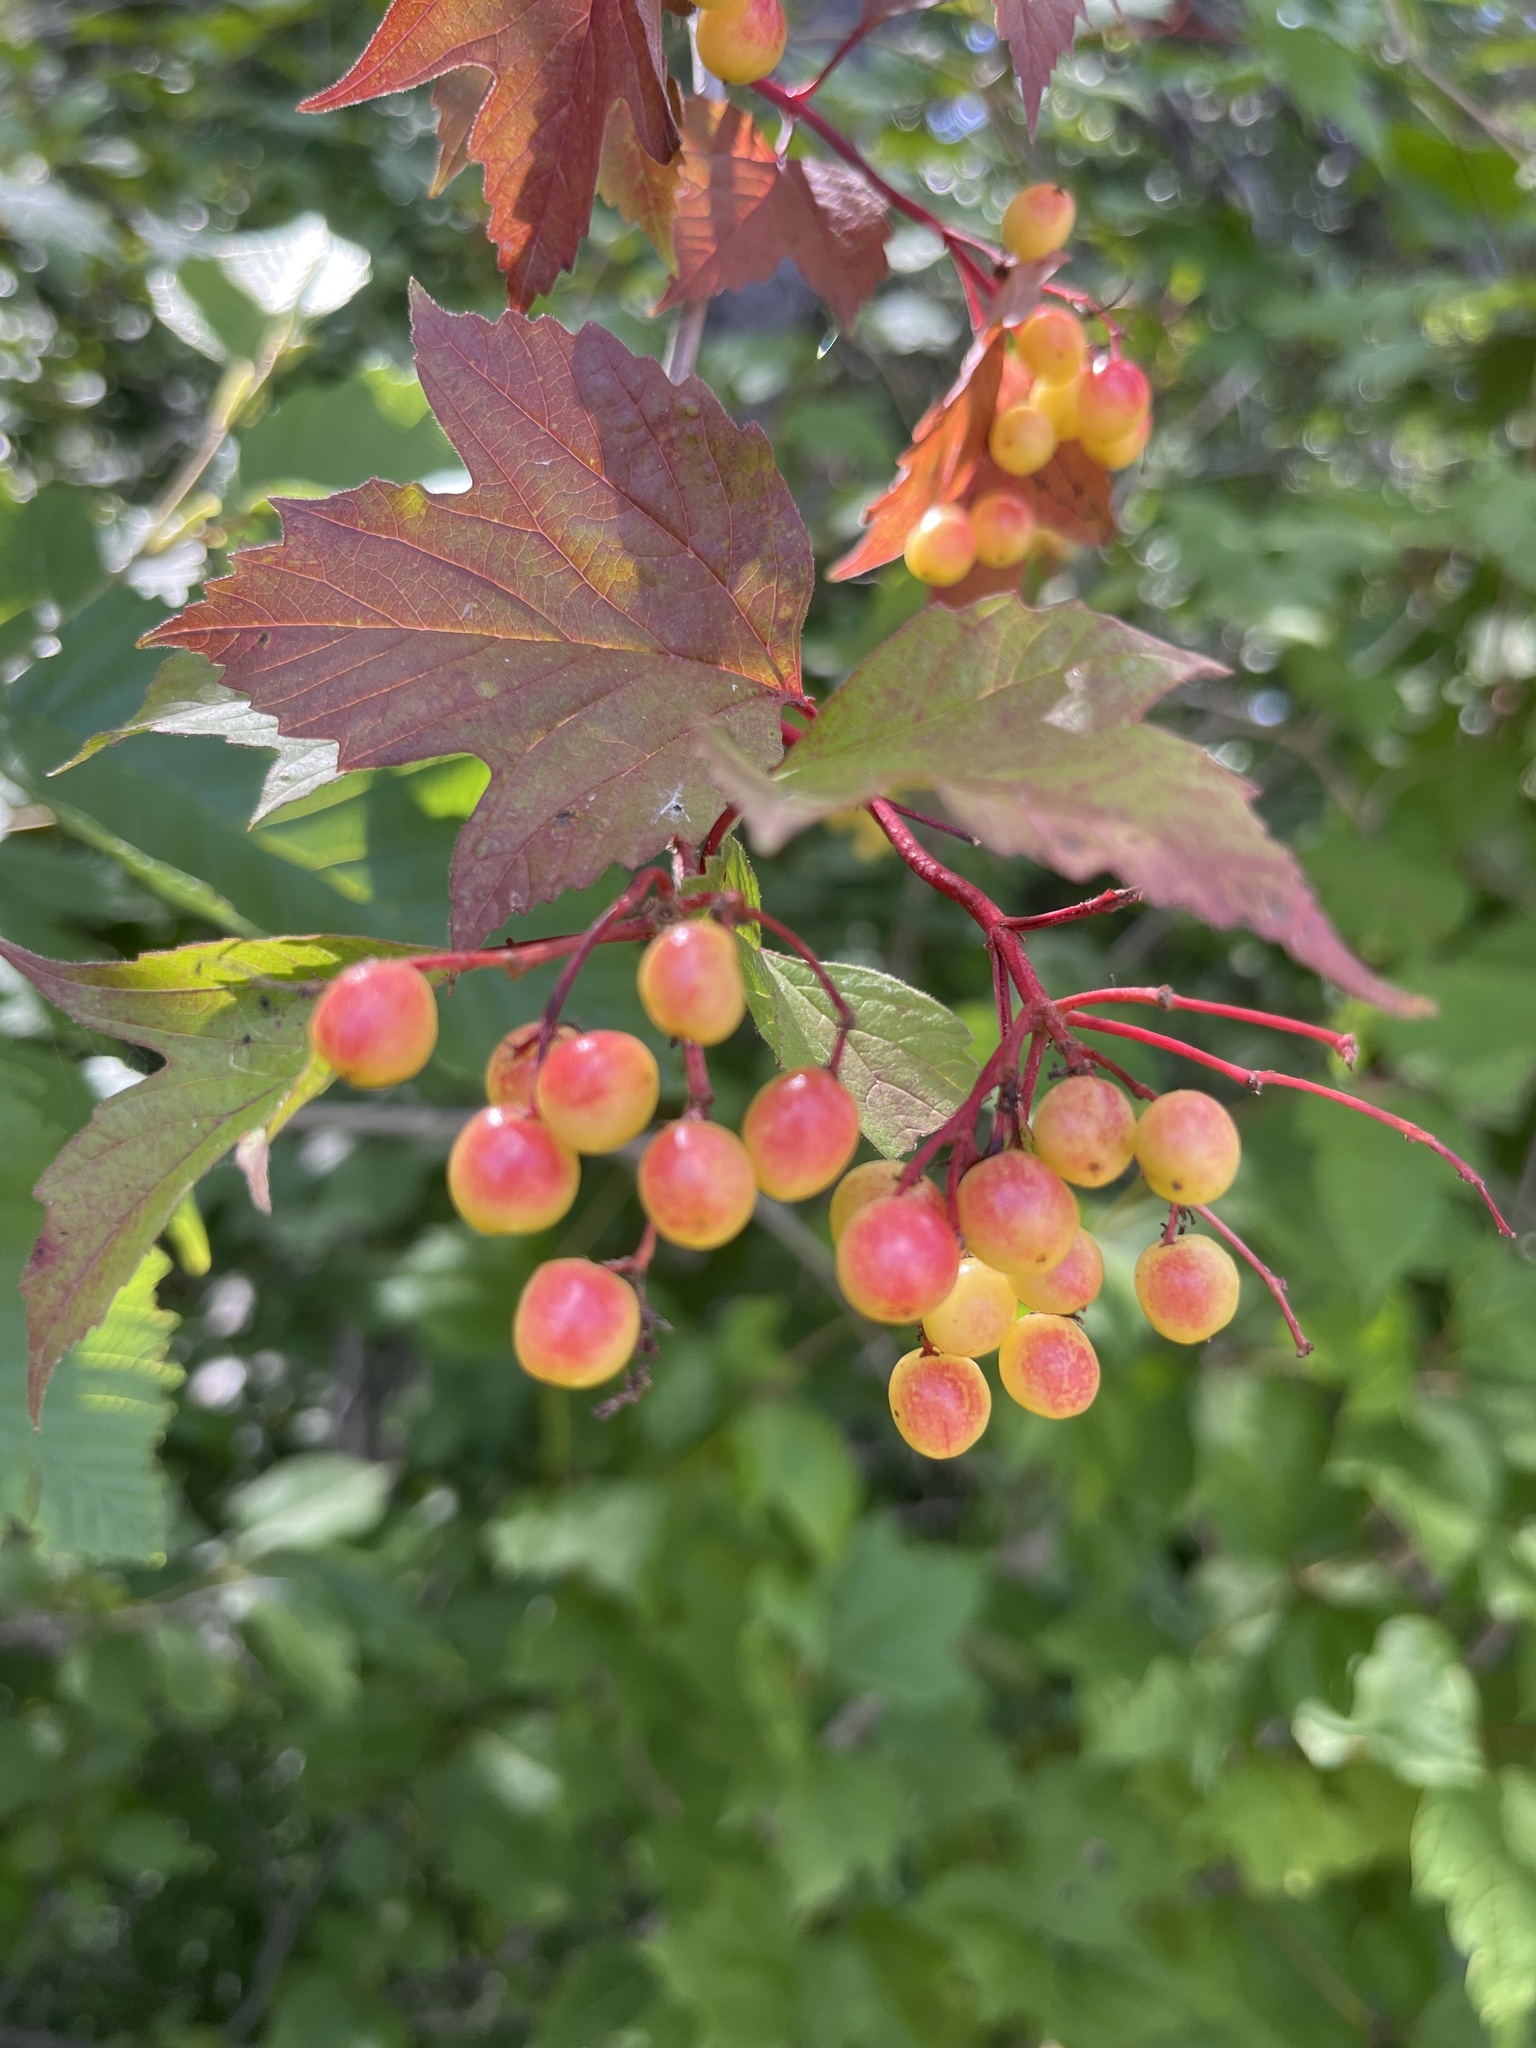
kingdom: Plantae
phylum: Tracheophyta
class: Magnoliopsida
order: Dipsacales
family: Viburnaceae
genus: Viburnum
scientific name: Viburnum opulus
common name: Guelder-rose
